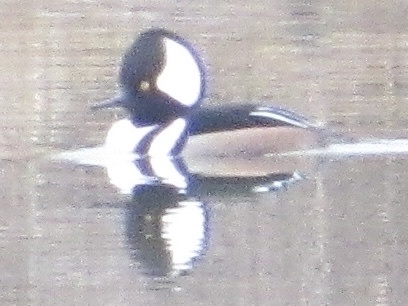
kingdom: Animalia
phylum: Chordata
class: Aves
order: Anseriformes
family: Anatidae
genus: Lophodytes
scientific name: Lophodytes cucullatus
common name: Hooded merganser
